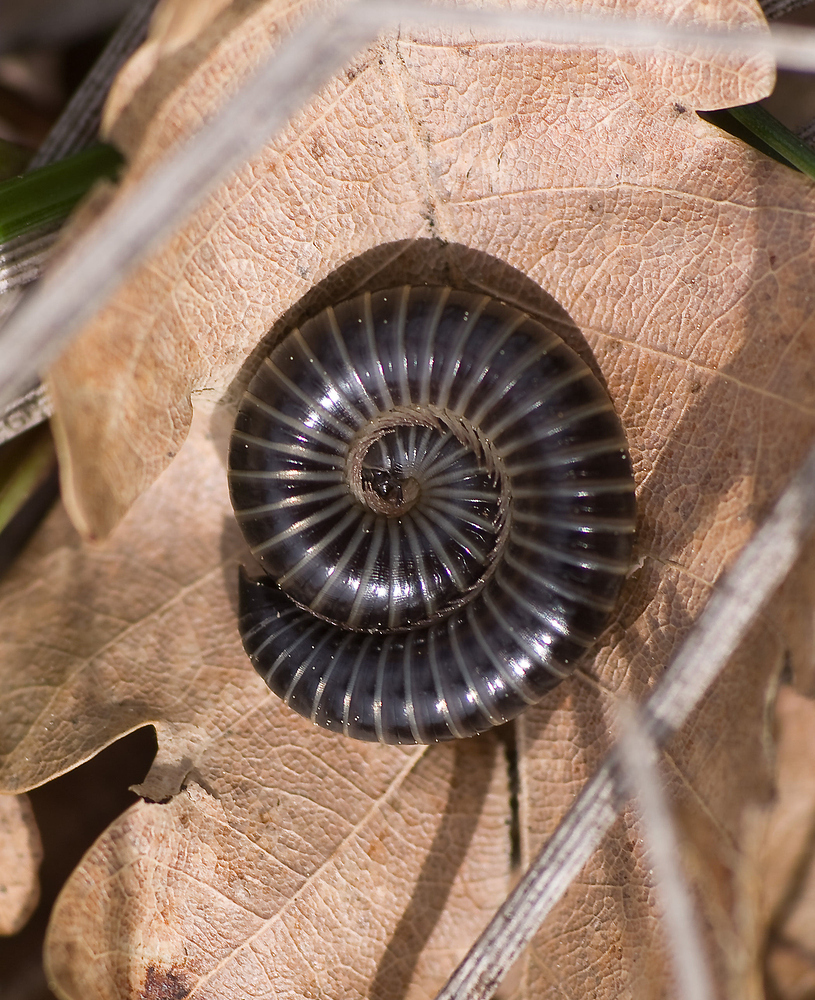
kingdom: Animalia
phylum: Arthropoda
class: Diplopoda
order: Julida
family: Julidae
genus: Ommatoiulus
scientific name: Ommatoiulus sabulosus
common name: Striped millipede
